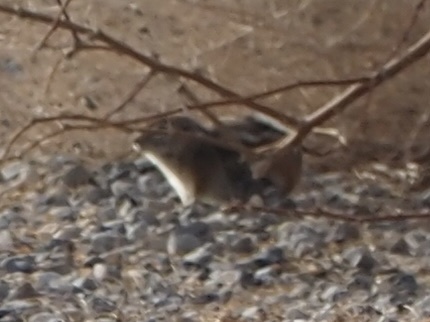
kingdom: Animalia
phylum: Chordata
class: Mammalia
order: Rodentia
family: Sciuridae
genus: Ammospermophilus
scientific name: Ammospermophilus leucurus
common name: White-tailed antelope squirrel
